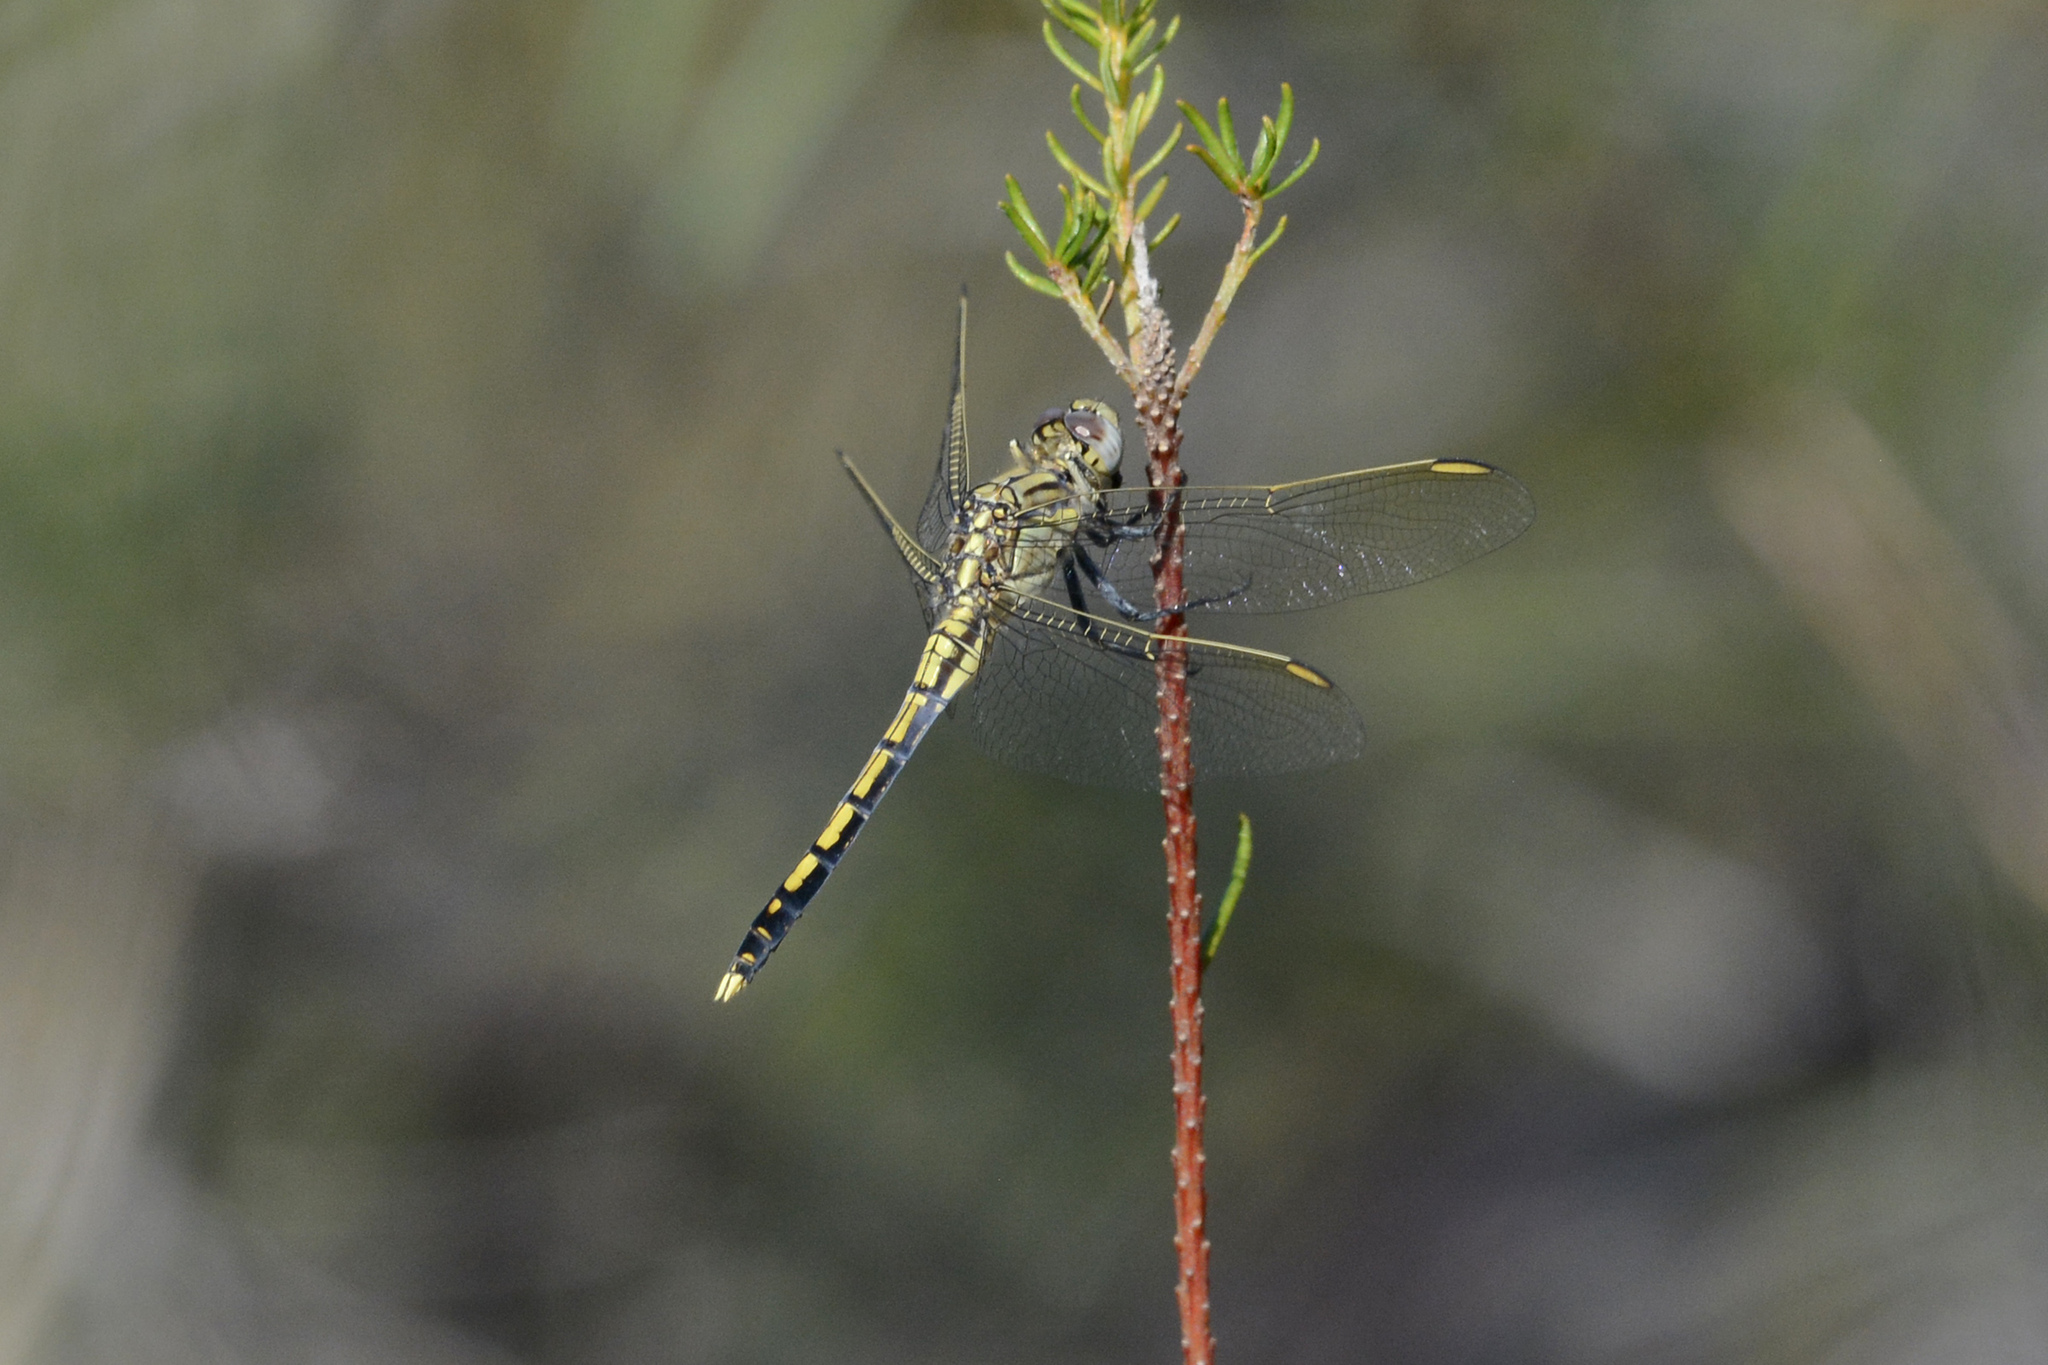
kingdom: Animalia
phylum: Arthropoda
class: Insecta
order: Odonata
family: Libellulidae
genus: Orthetrum
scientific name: Orthetrum caledonicum
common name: Blue skimmer
